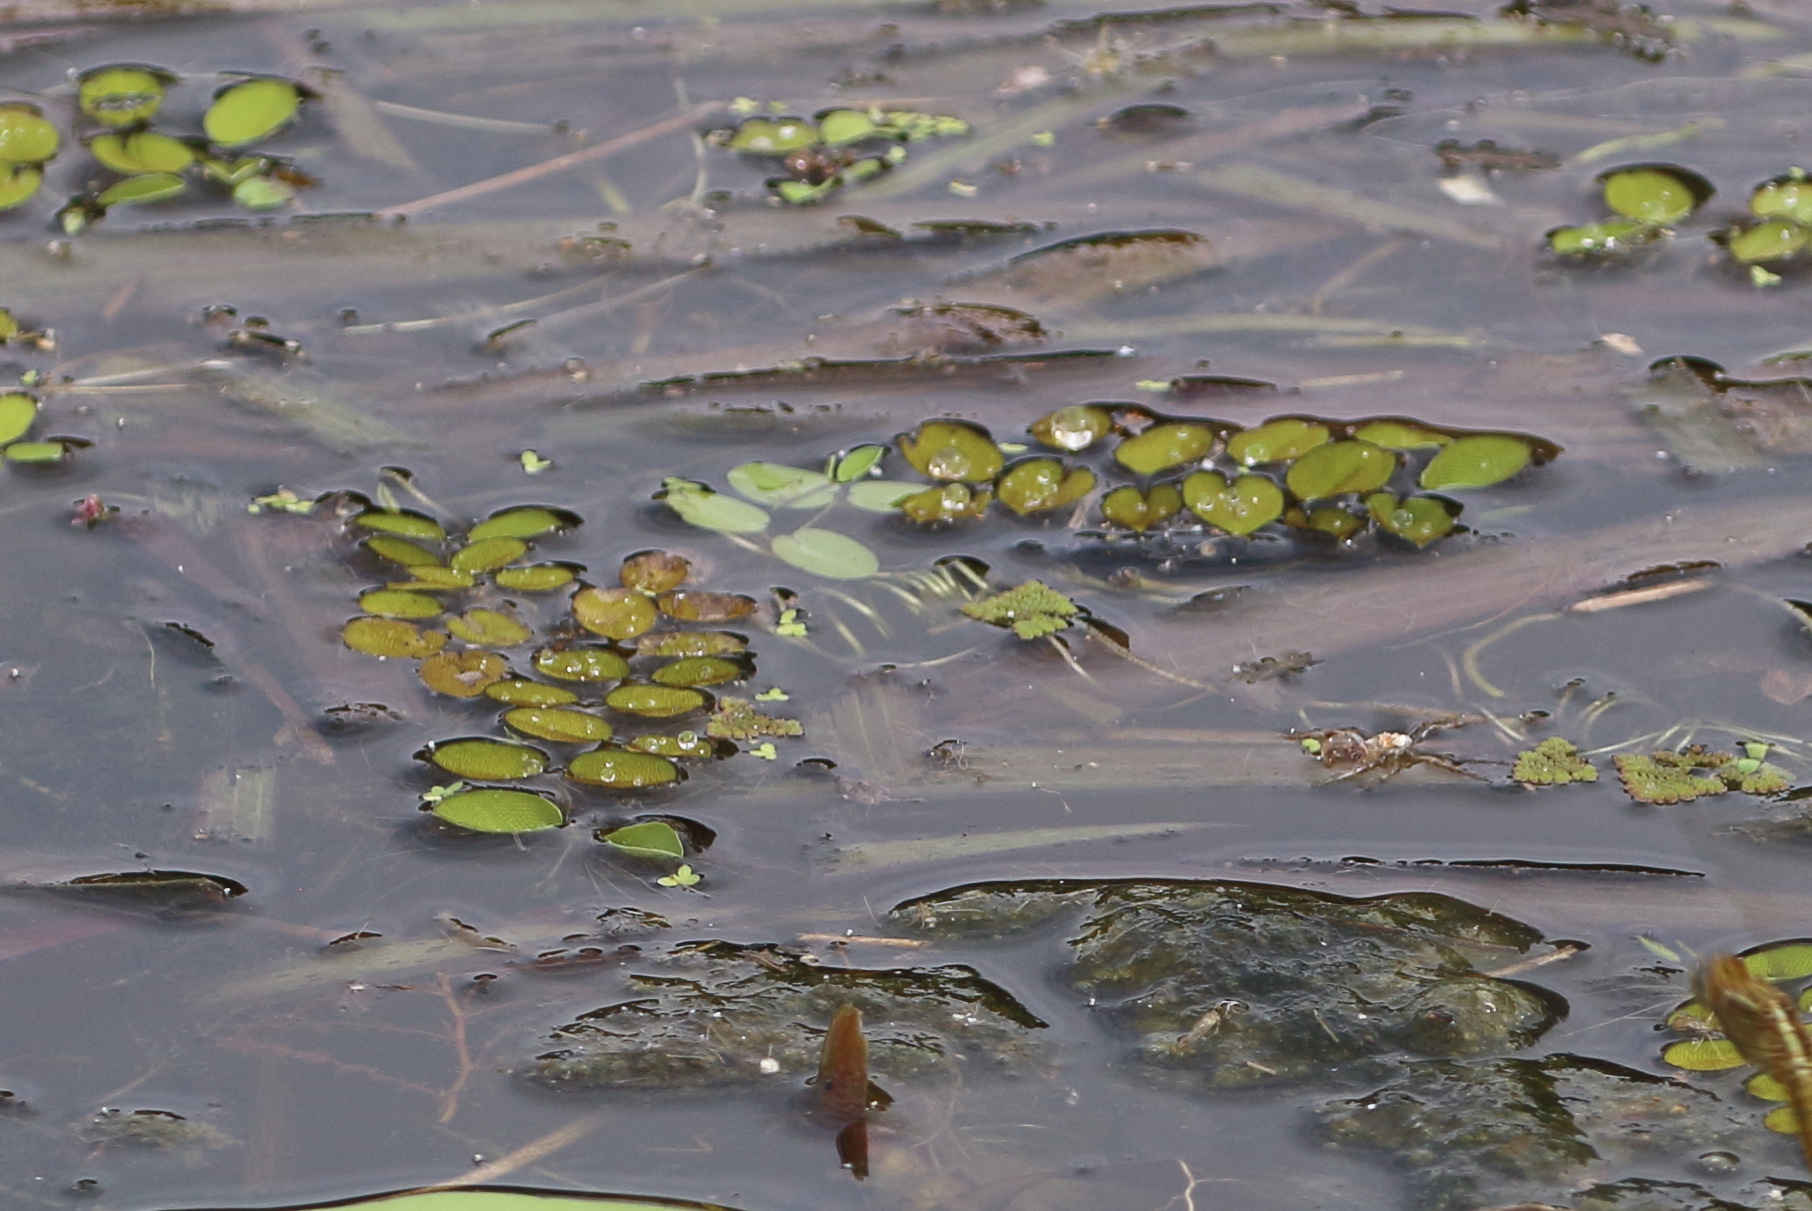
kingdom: Plantae
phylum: Tracheophyta
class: Polypodiopsida
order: Salviniales
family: Salviniaceae
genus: Salvinia
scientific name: Salvinia molesta
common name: Kariba weed
